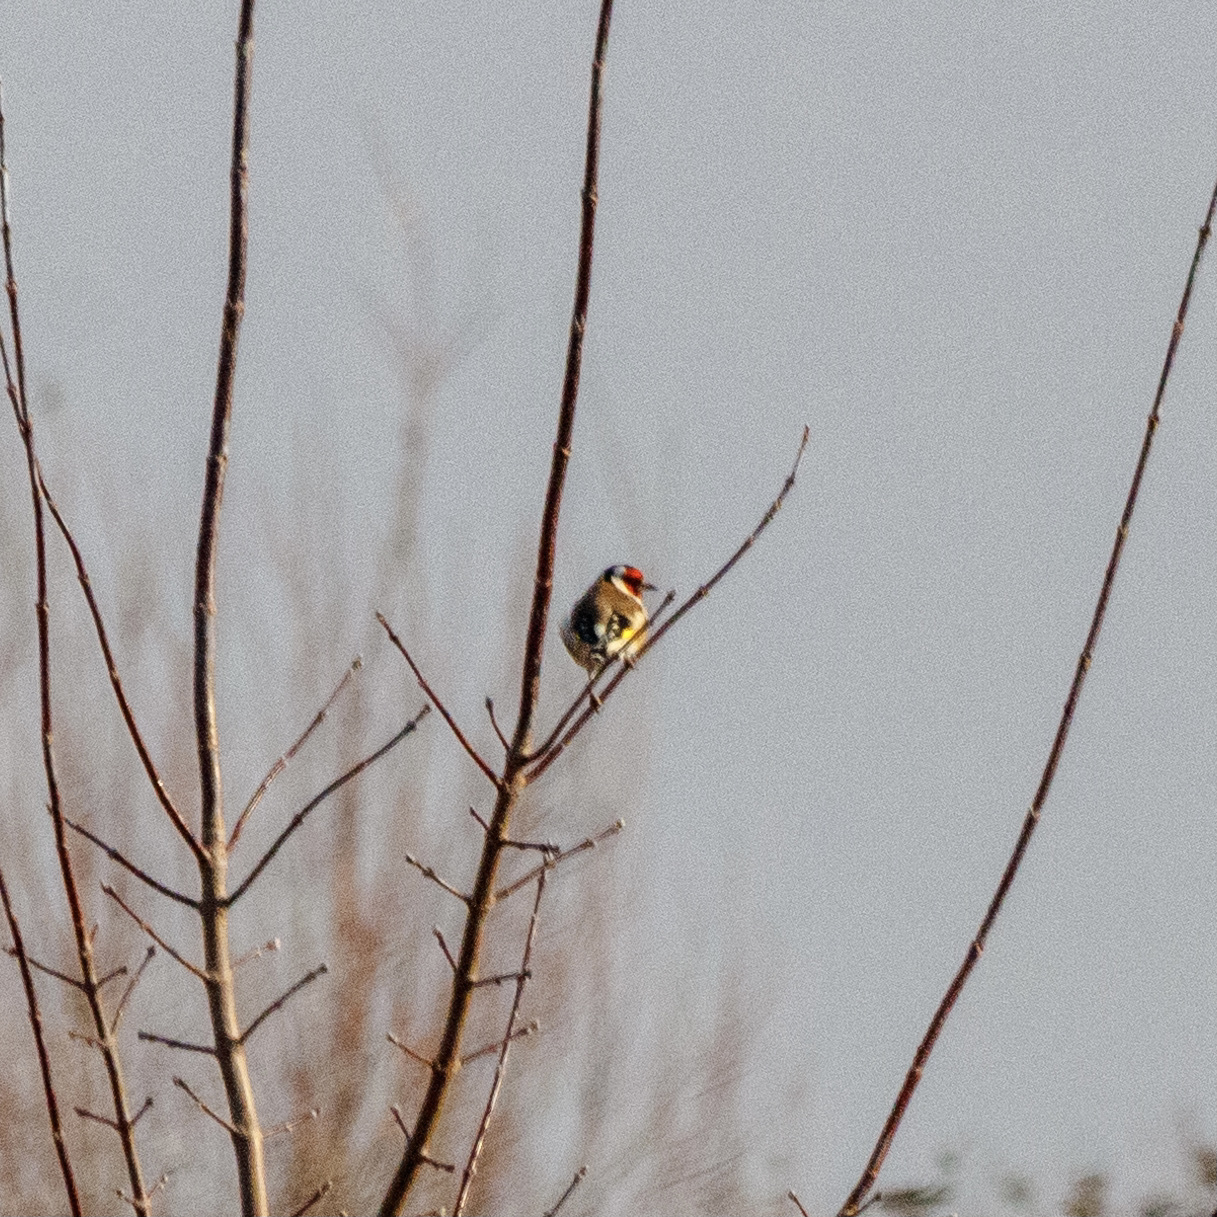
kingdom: Animalia
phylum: Chordata
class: Aves
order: Passeriformes
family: Fringillidae
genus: Carduelis
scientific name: Carduelis carduelis
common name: European goldfinch
